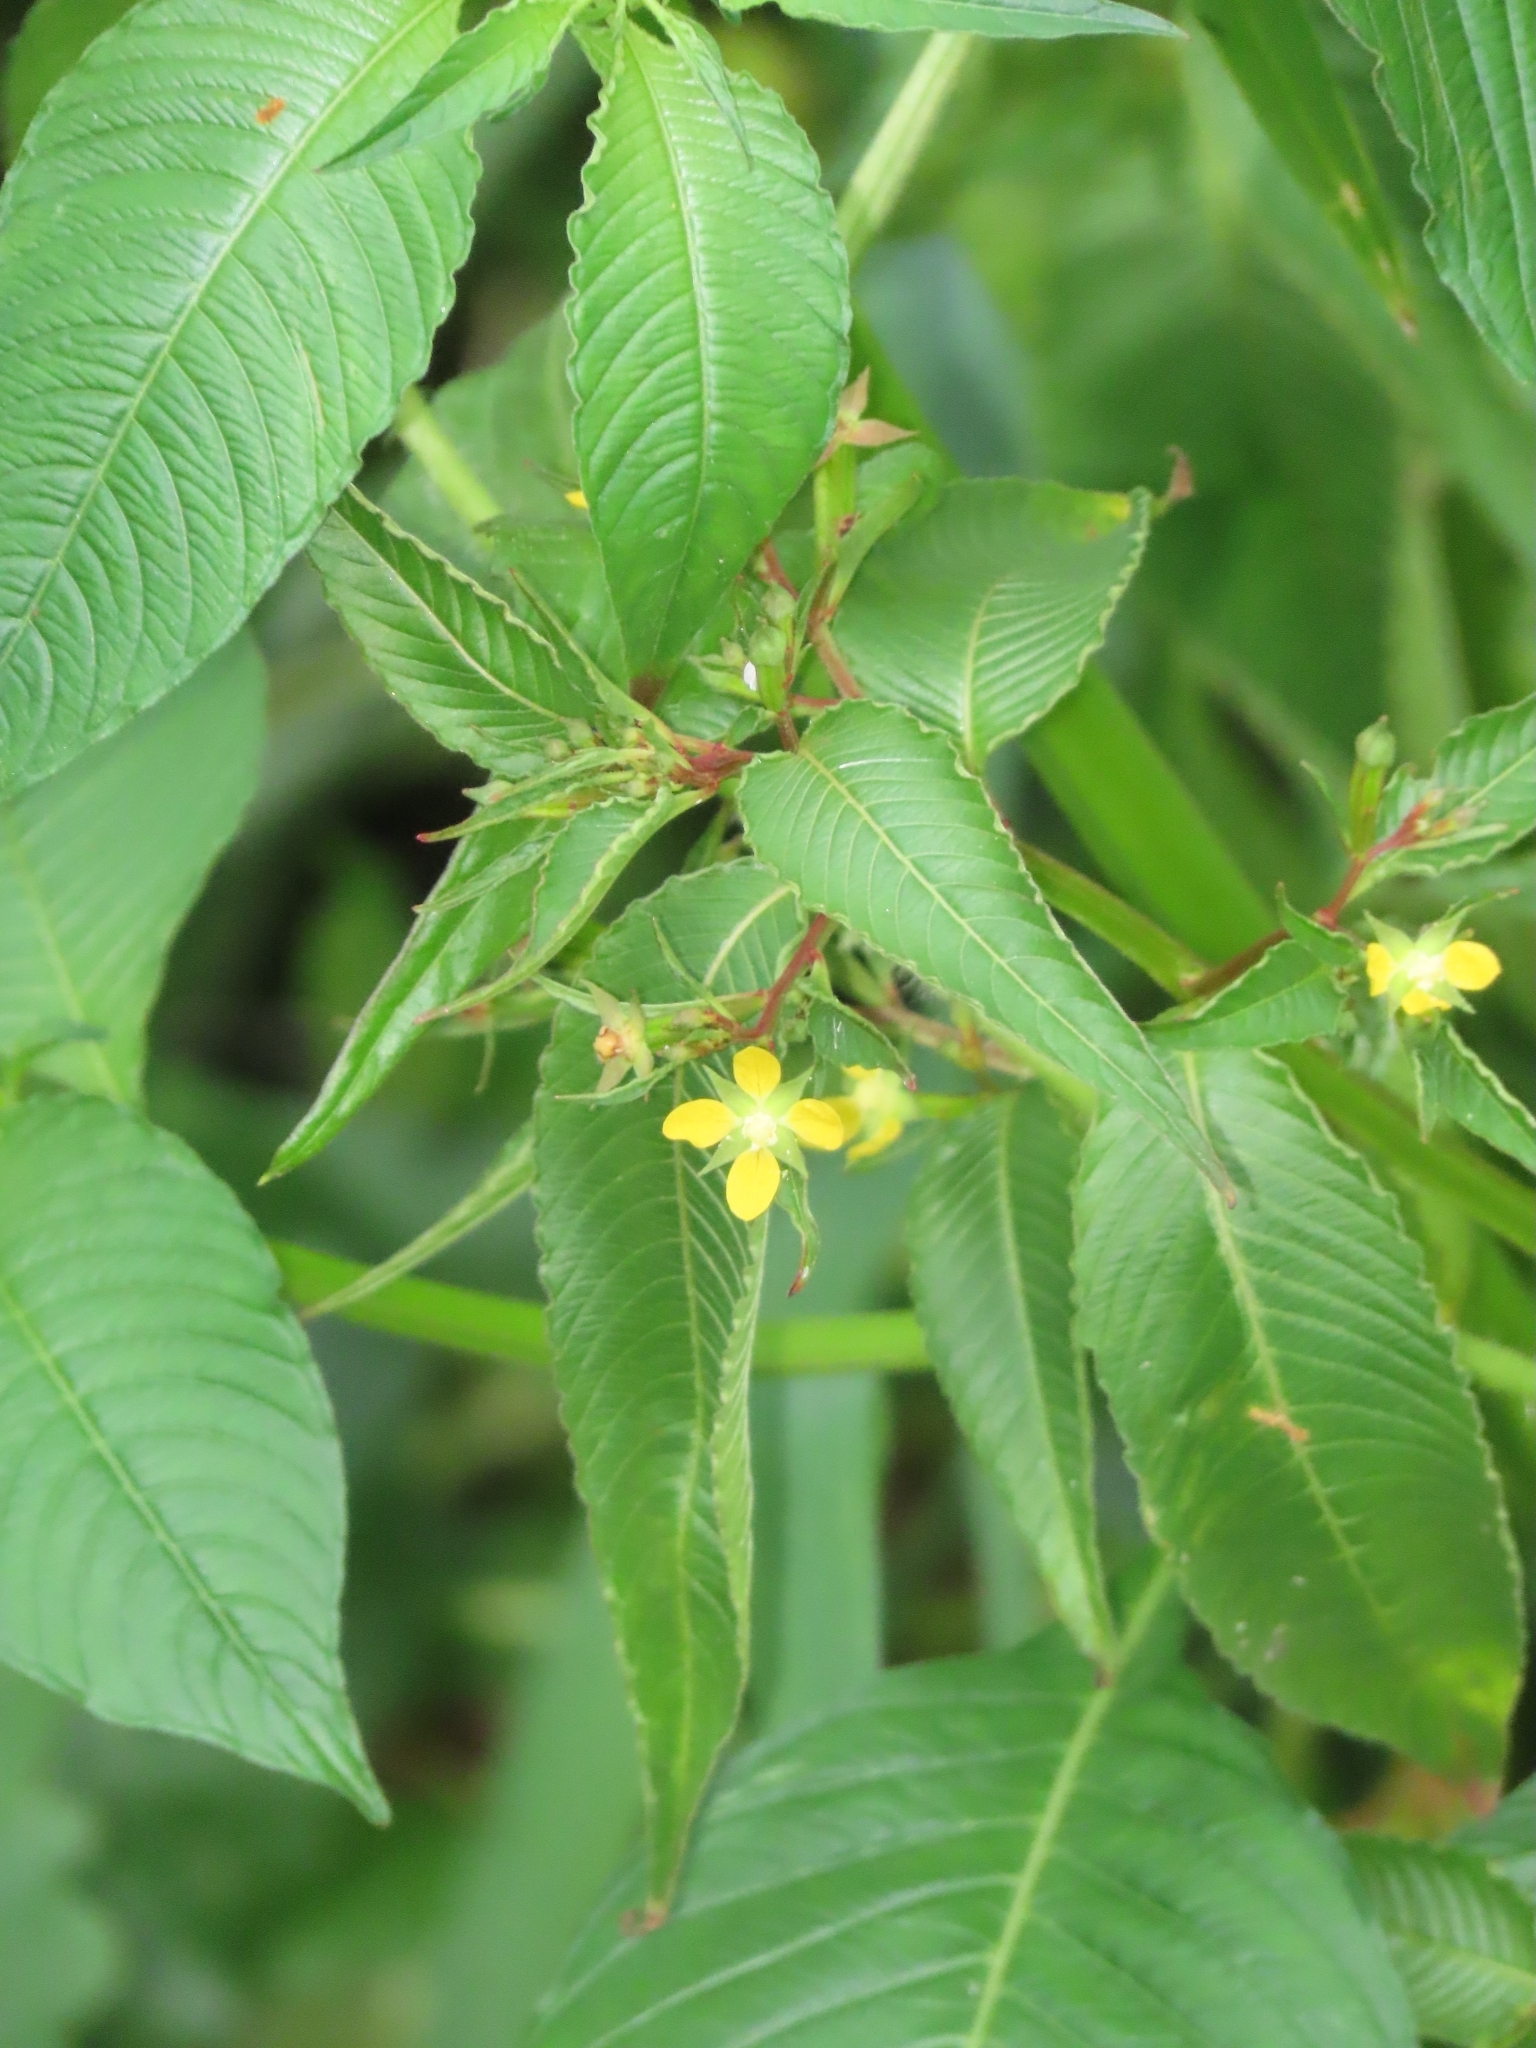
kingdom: Plantae
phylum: Tracheophyta
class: Magnoliopsida
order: Myrtales
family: Onagraceae
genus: Ludwigia
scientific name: Ludwigia erecta
